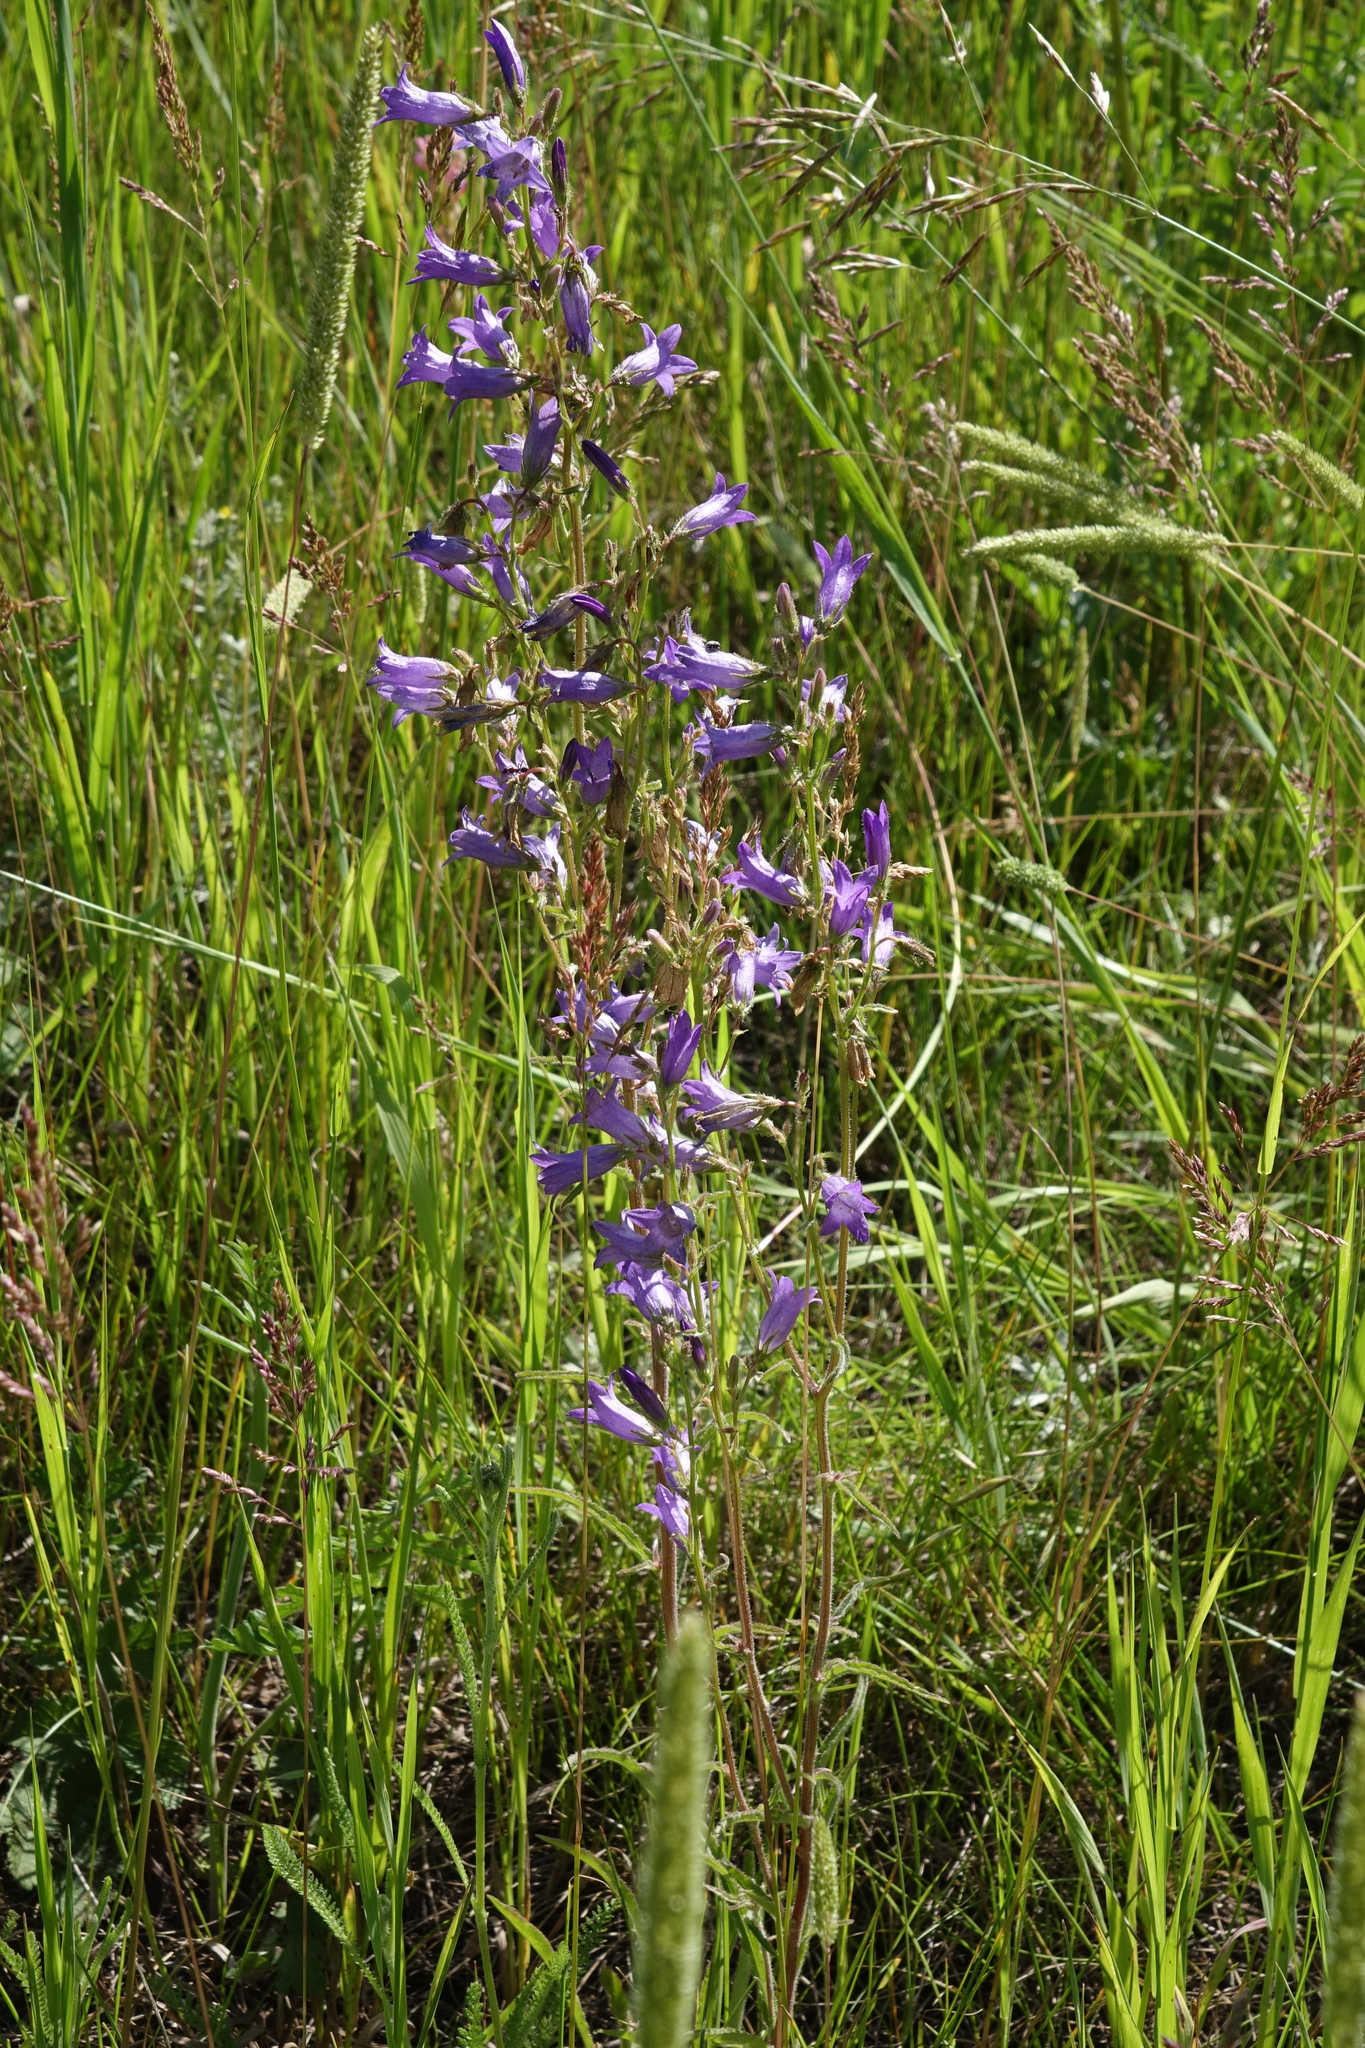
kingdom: Plantae
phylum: Tracheophyta
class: Magnoliopsida
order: Asterales
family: Campanulaceae
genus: Campanula
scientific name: Campanula sibirica
